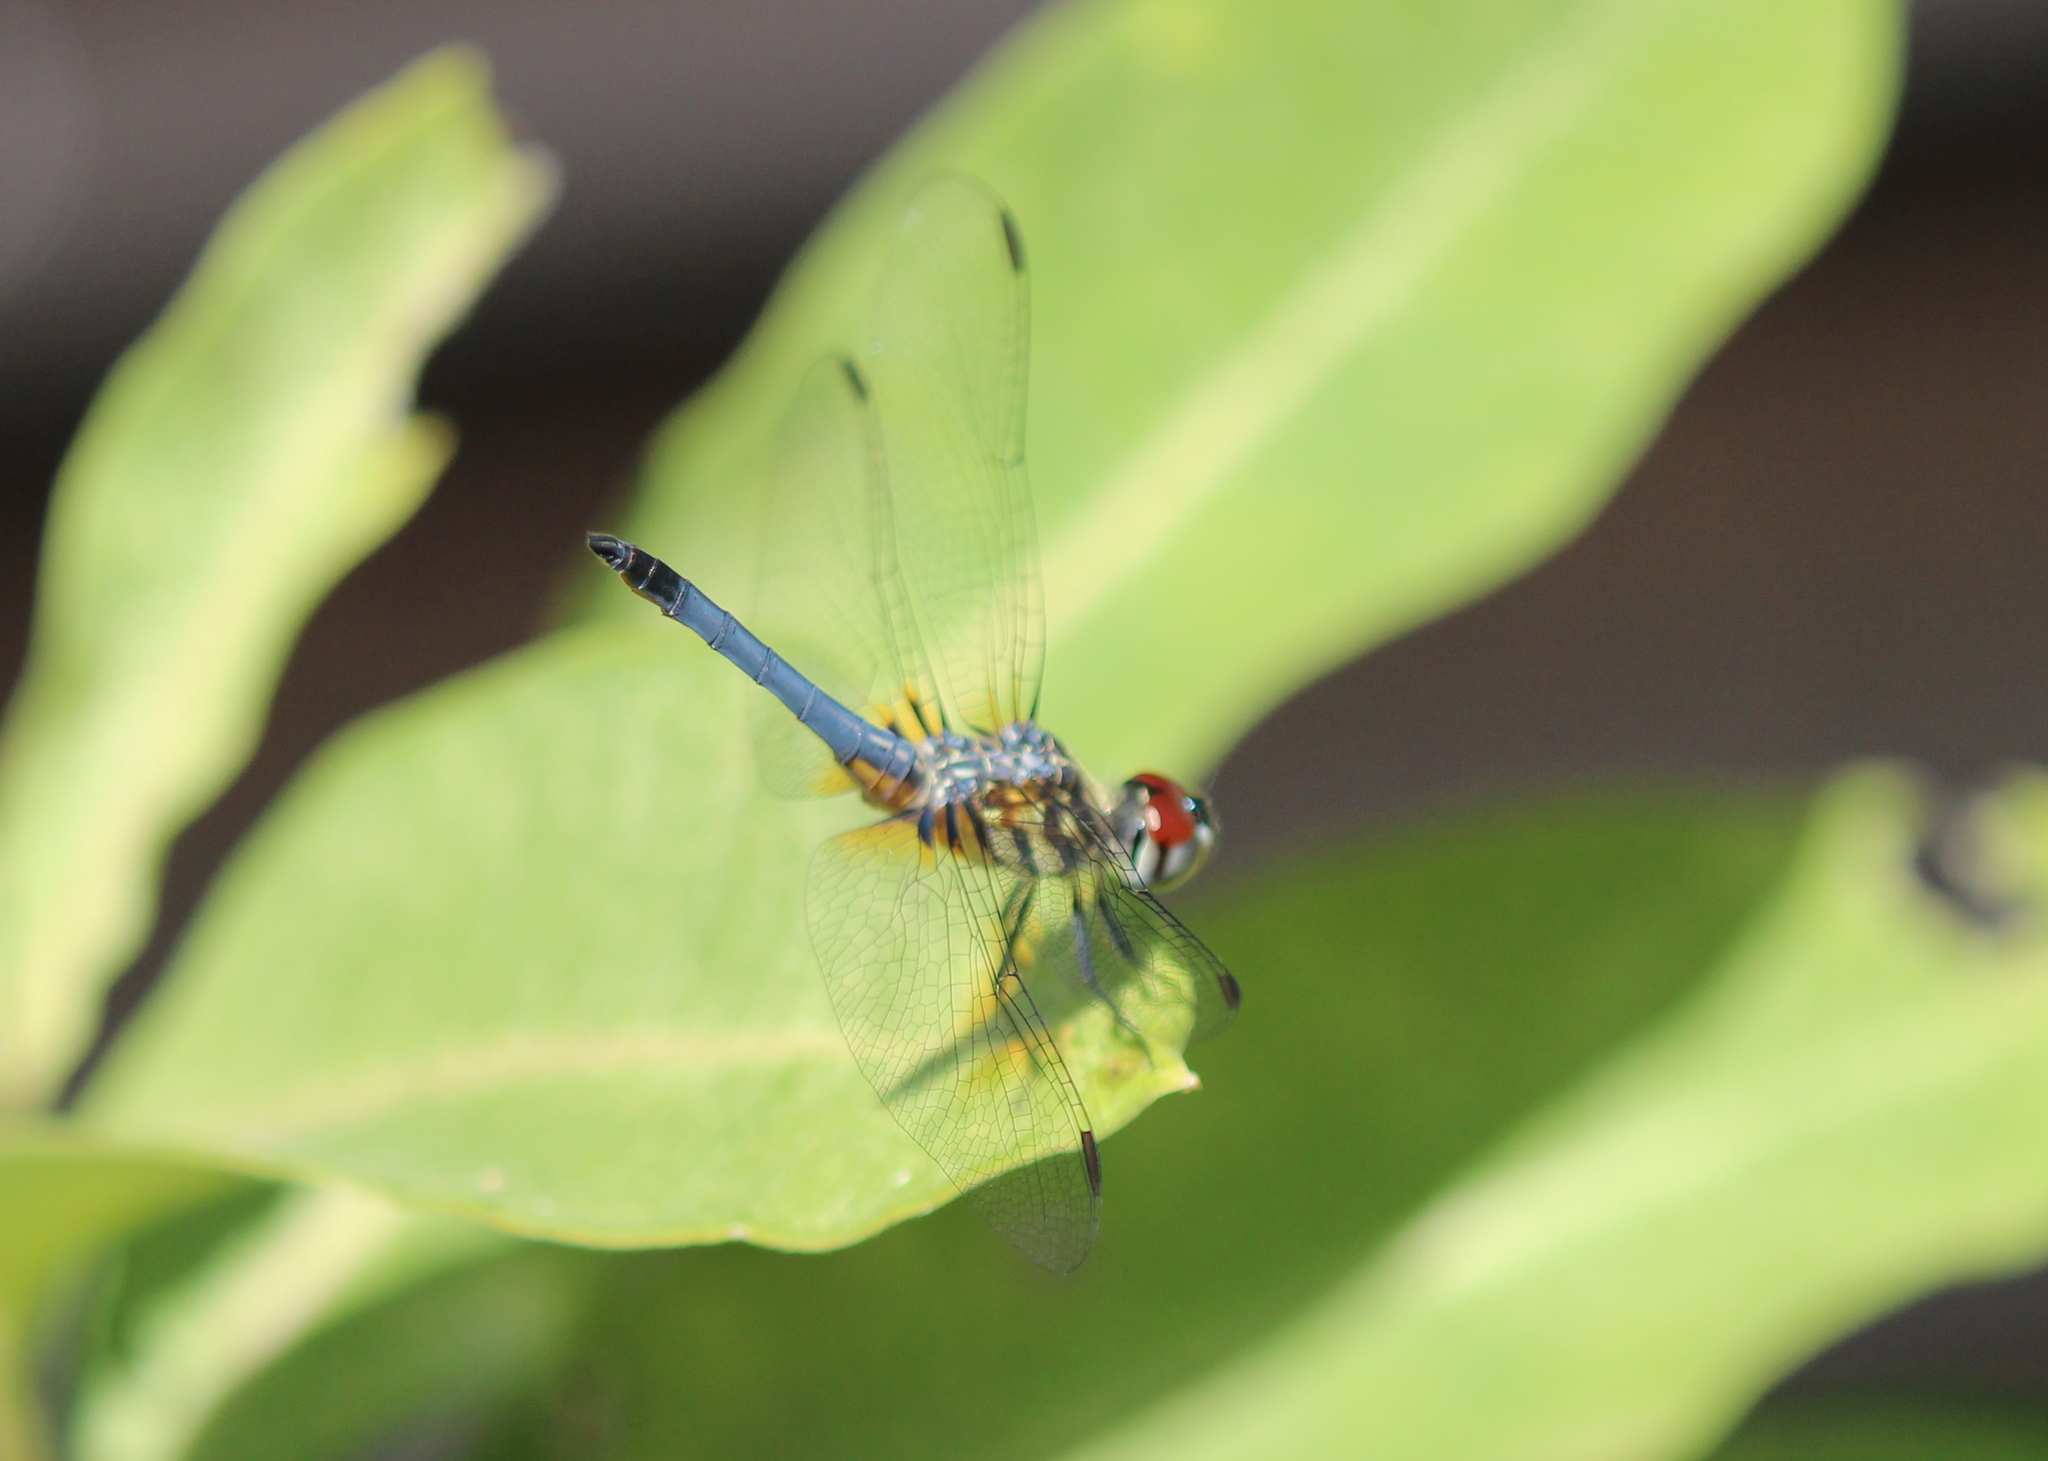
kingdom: Animalia
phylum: Arthropoda
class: Insecta
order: Odonata
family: Libellulidae
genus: Pachydiplax
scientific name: Pachydiplax longipennis
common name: Blue dasher
